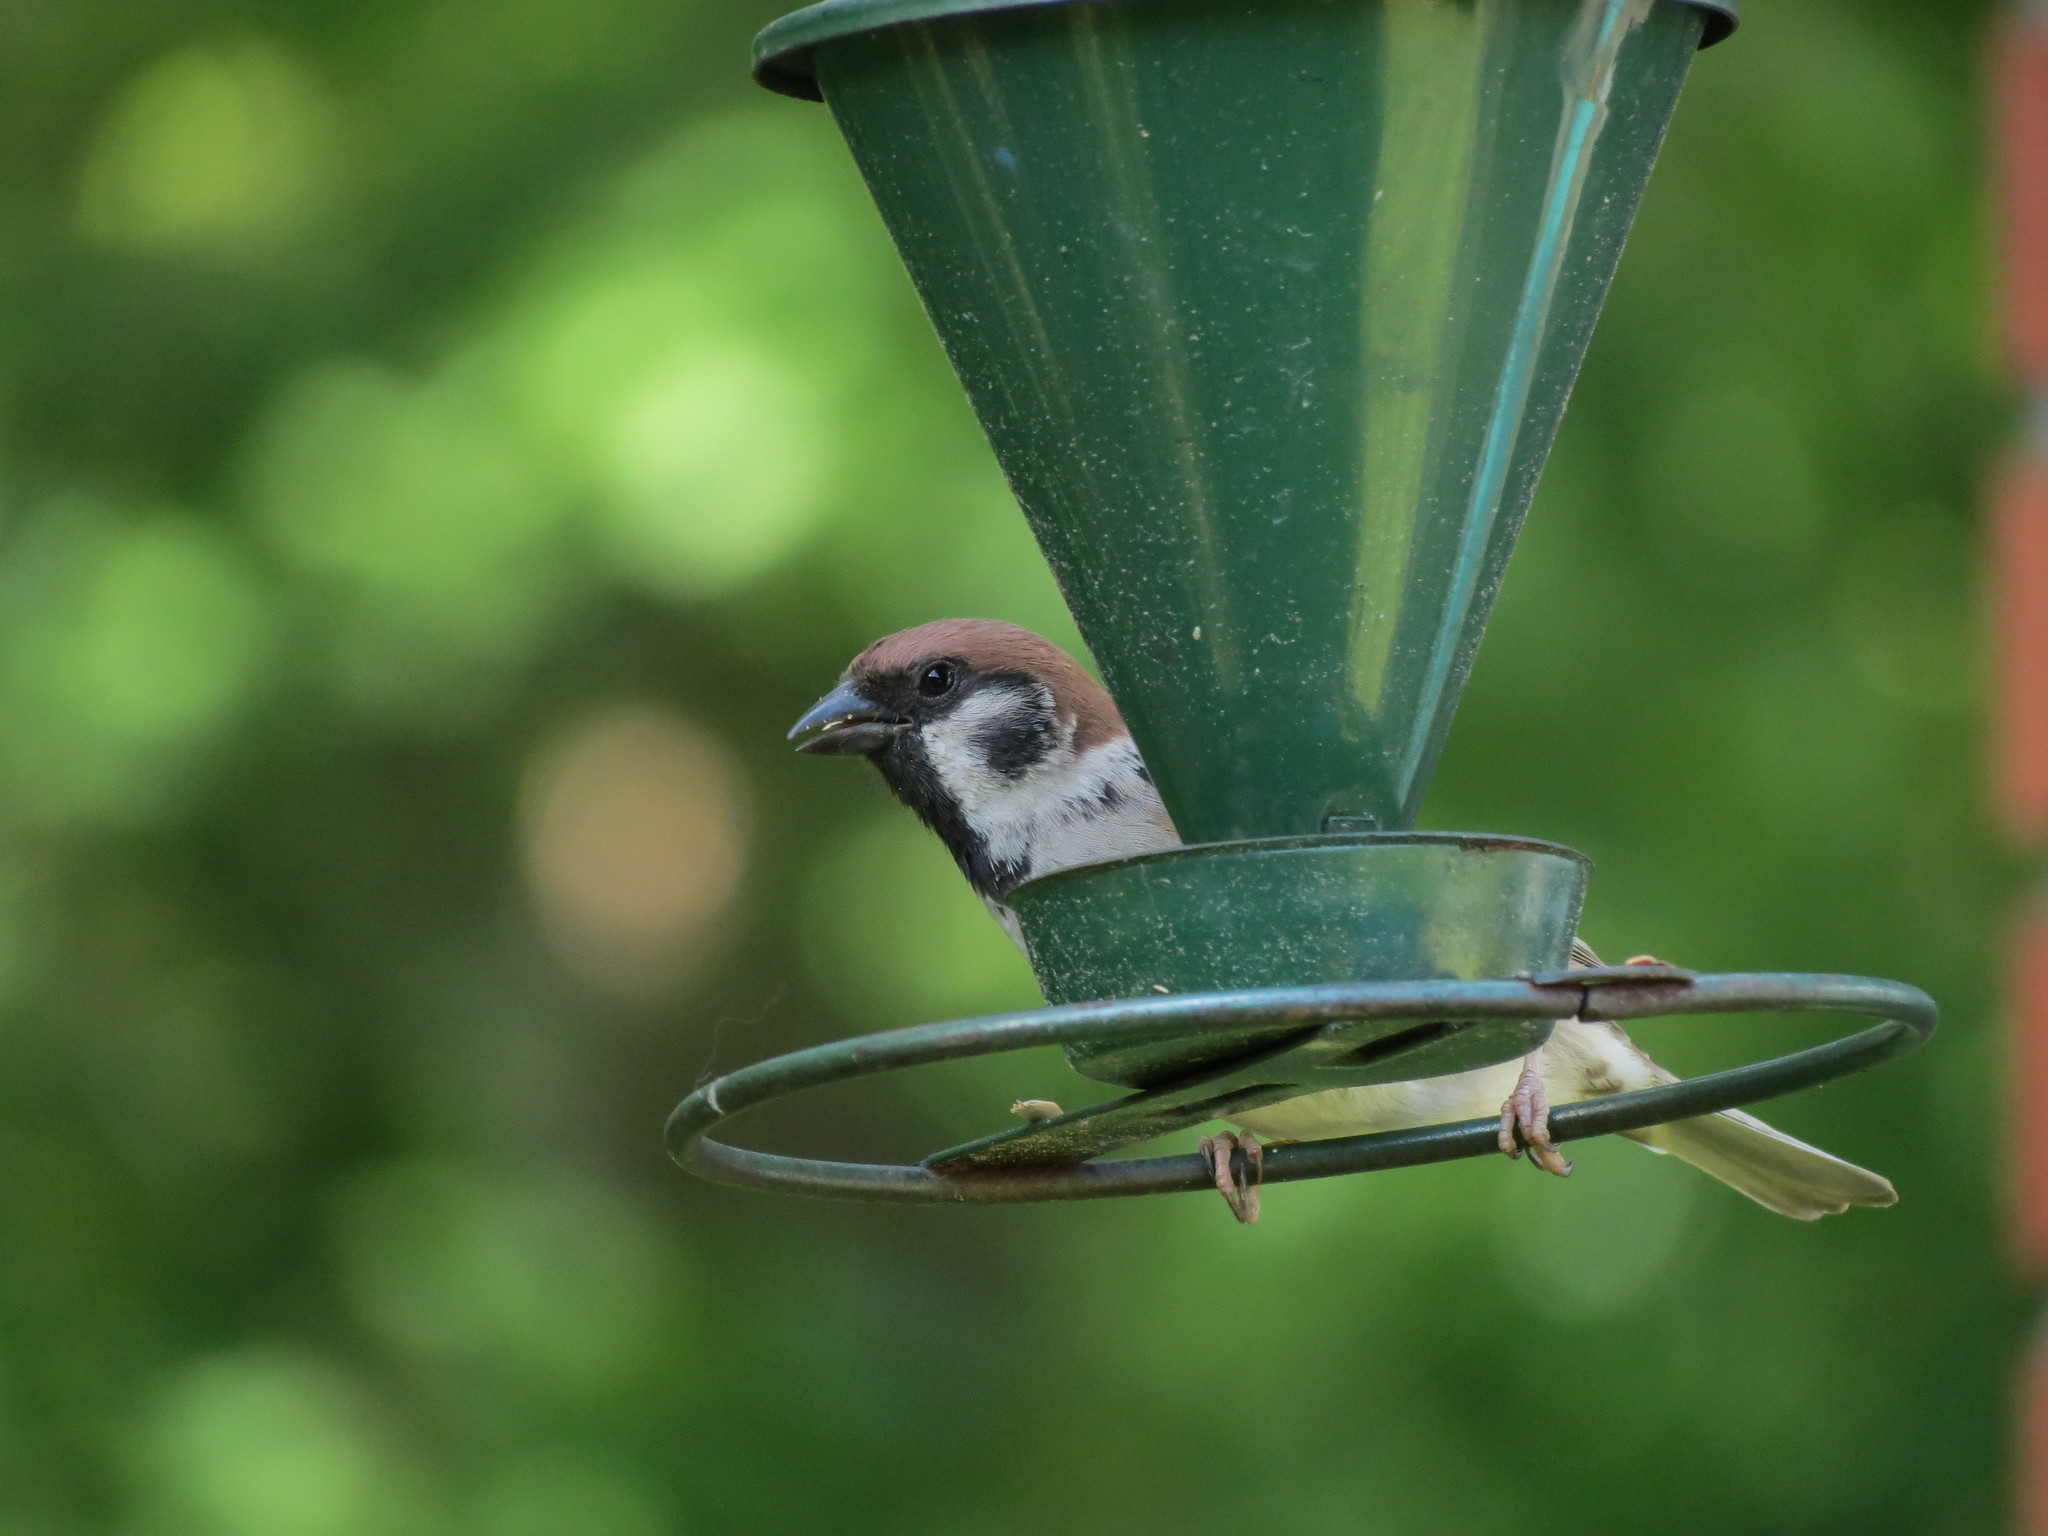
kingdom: Animalia
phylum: Chordata
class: Aves
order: Passeriformes
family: Passeridae
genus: Passer
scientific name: Passer montanus
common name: Eurasian tree sparrow
